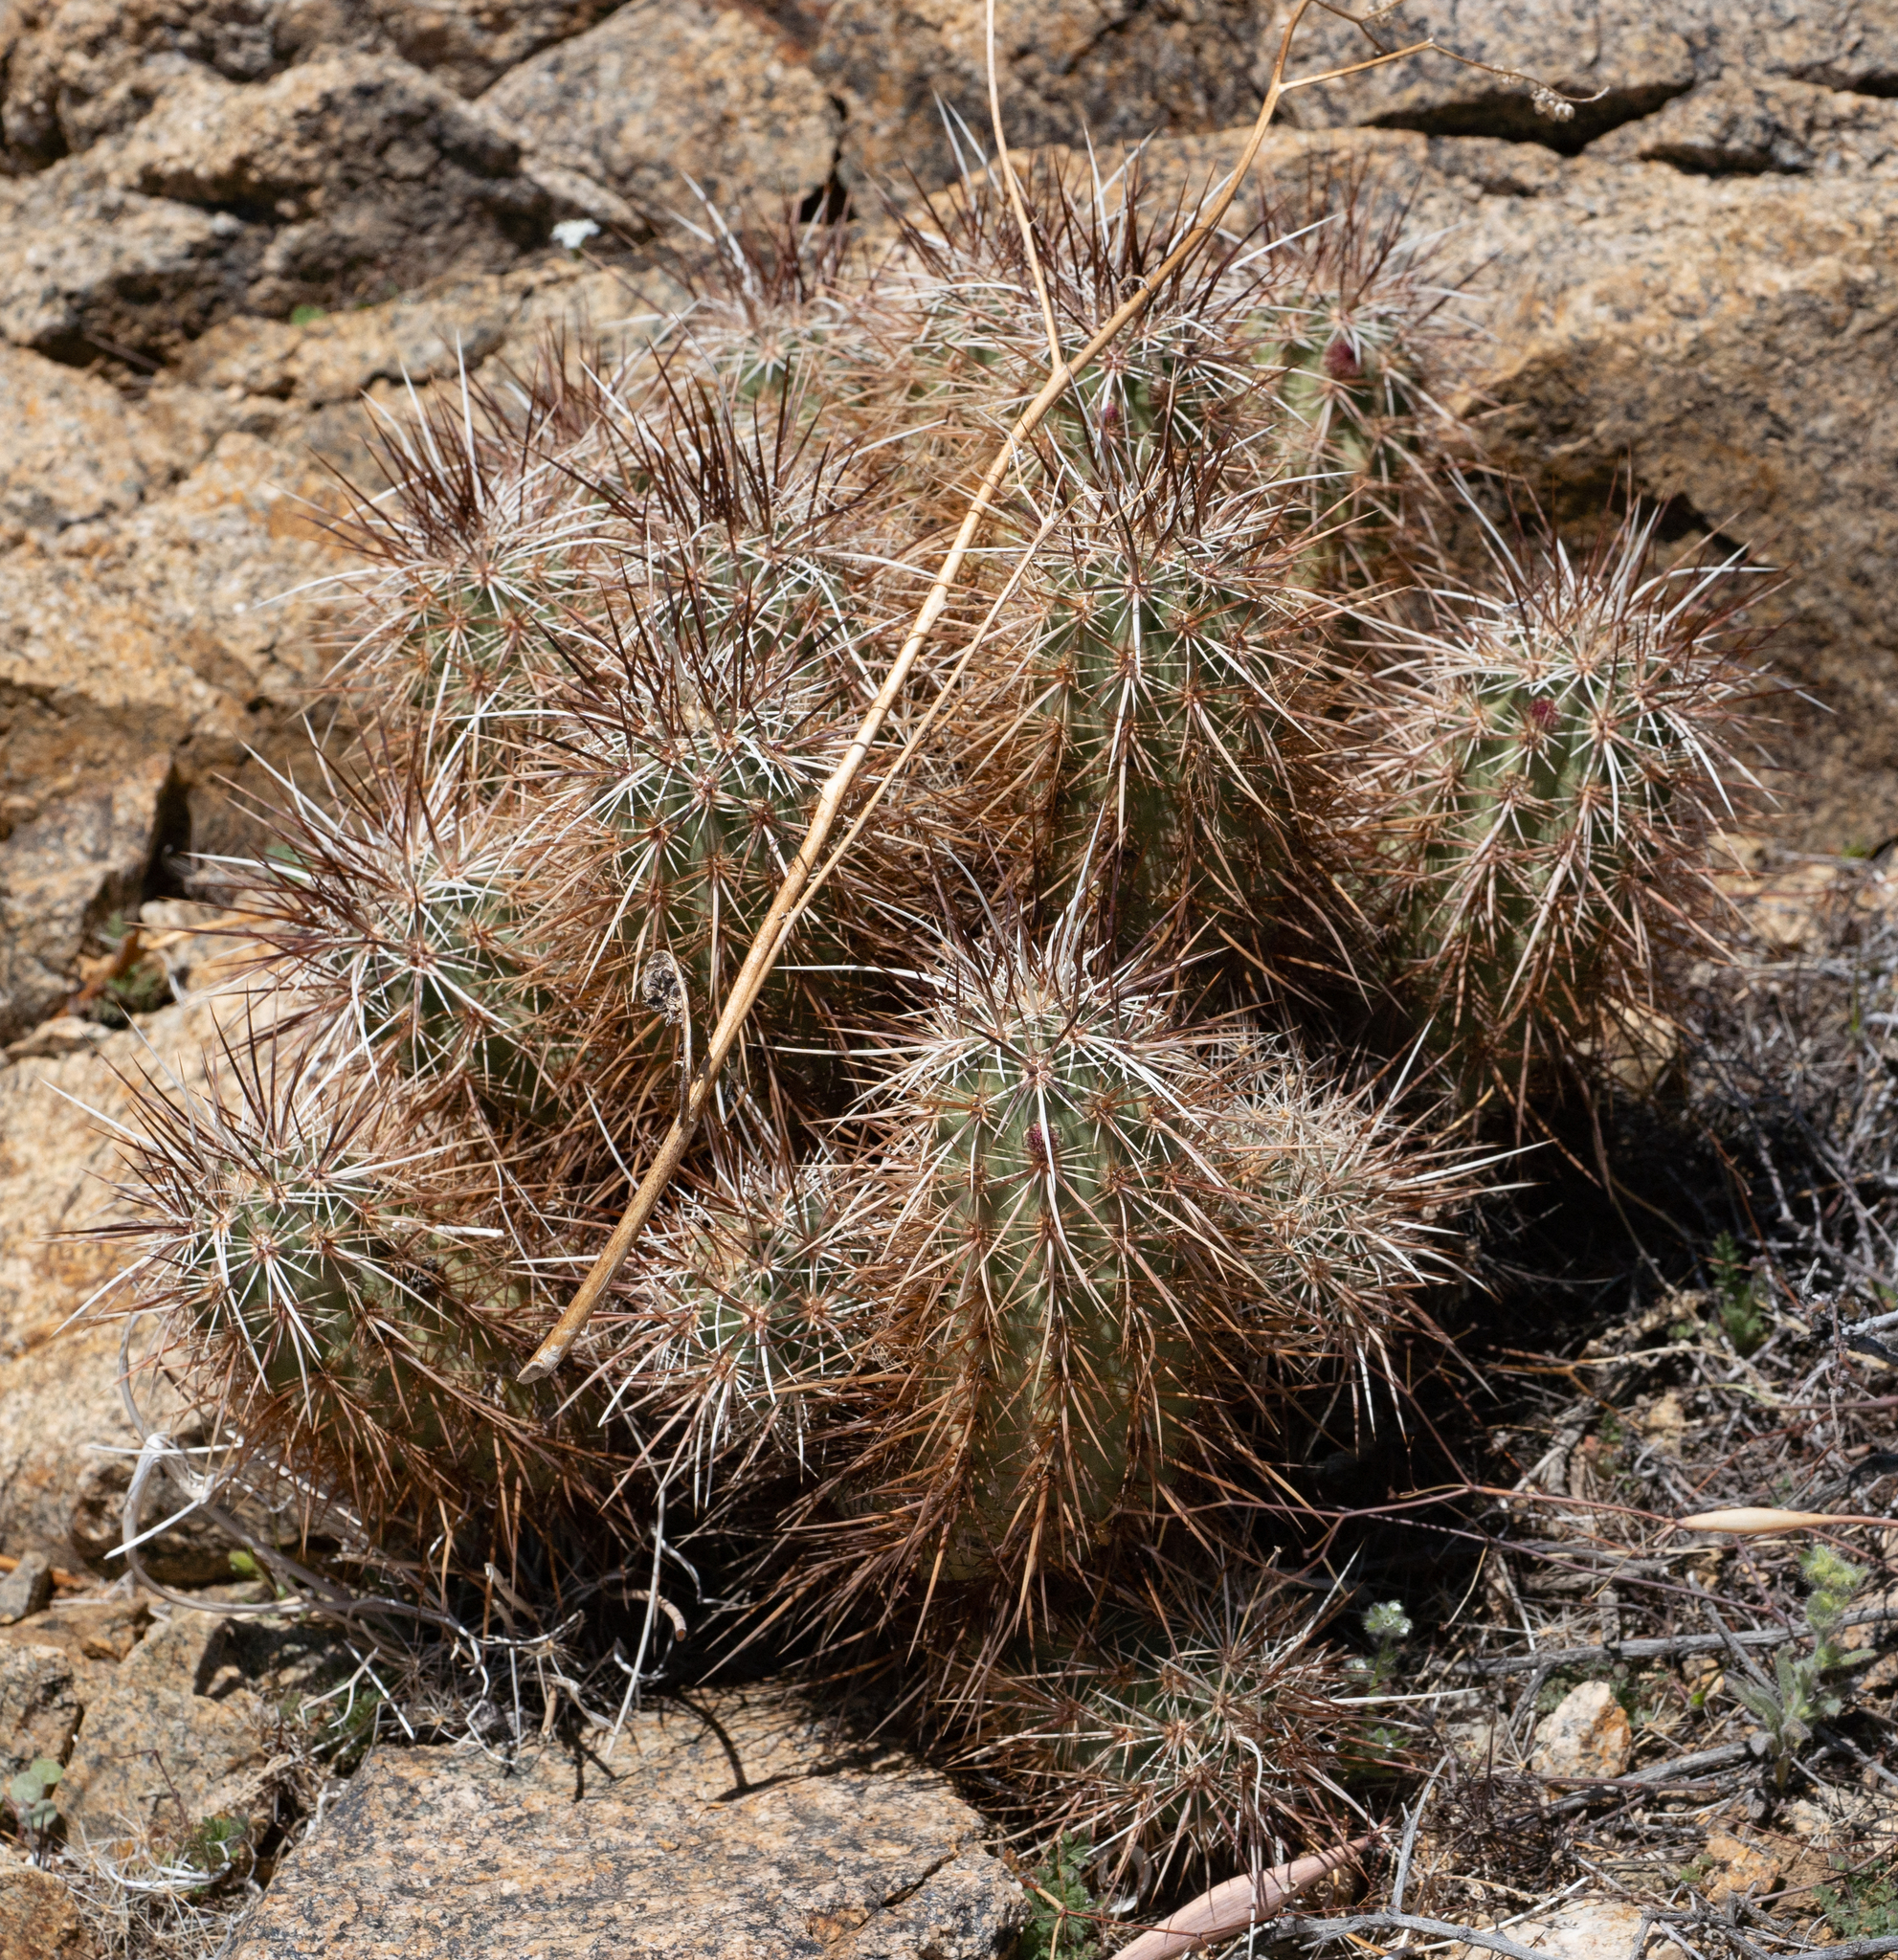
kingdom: Plantae
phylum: Tracheophyta
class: Magnoliopsida
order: Caryophyllales
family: Cactaceae
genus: Echinocereus
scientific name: Echinocereus engelmannii
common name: Engelmann's hedgehog cactus
